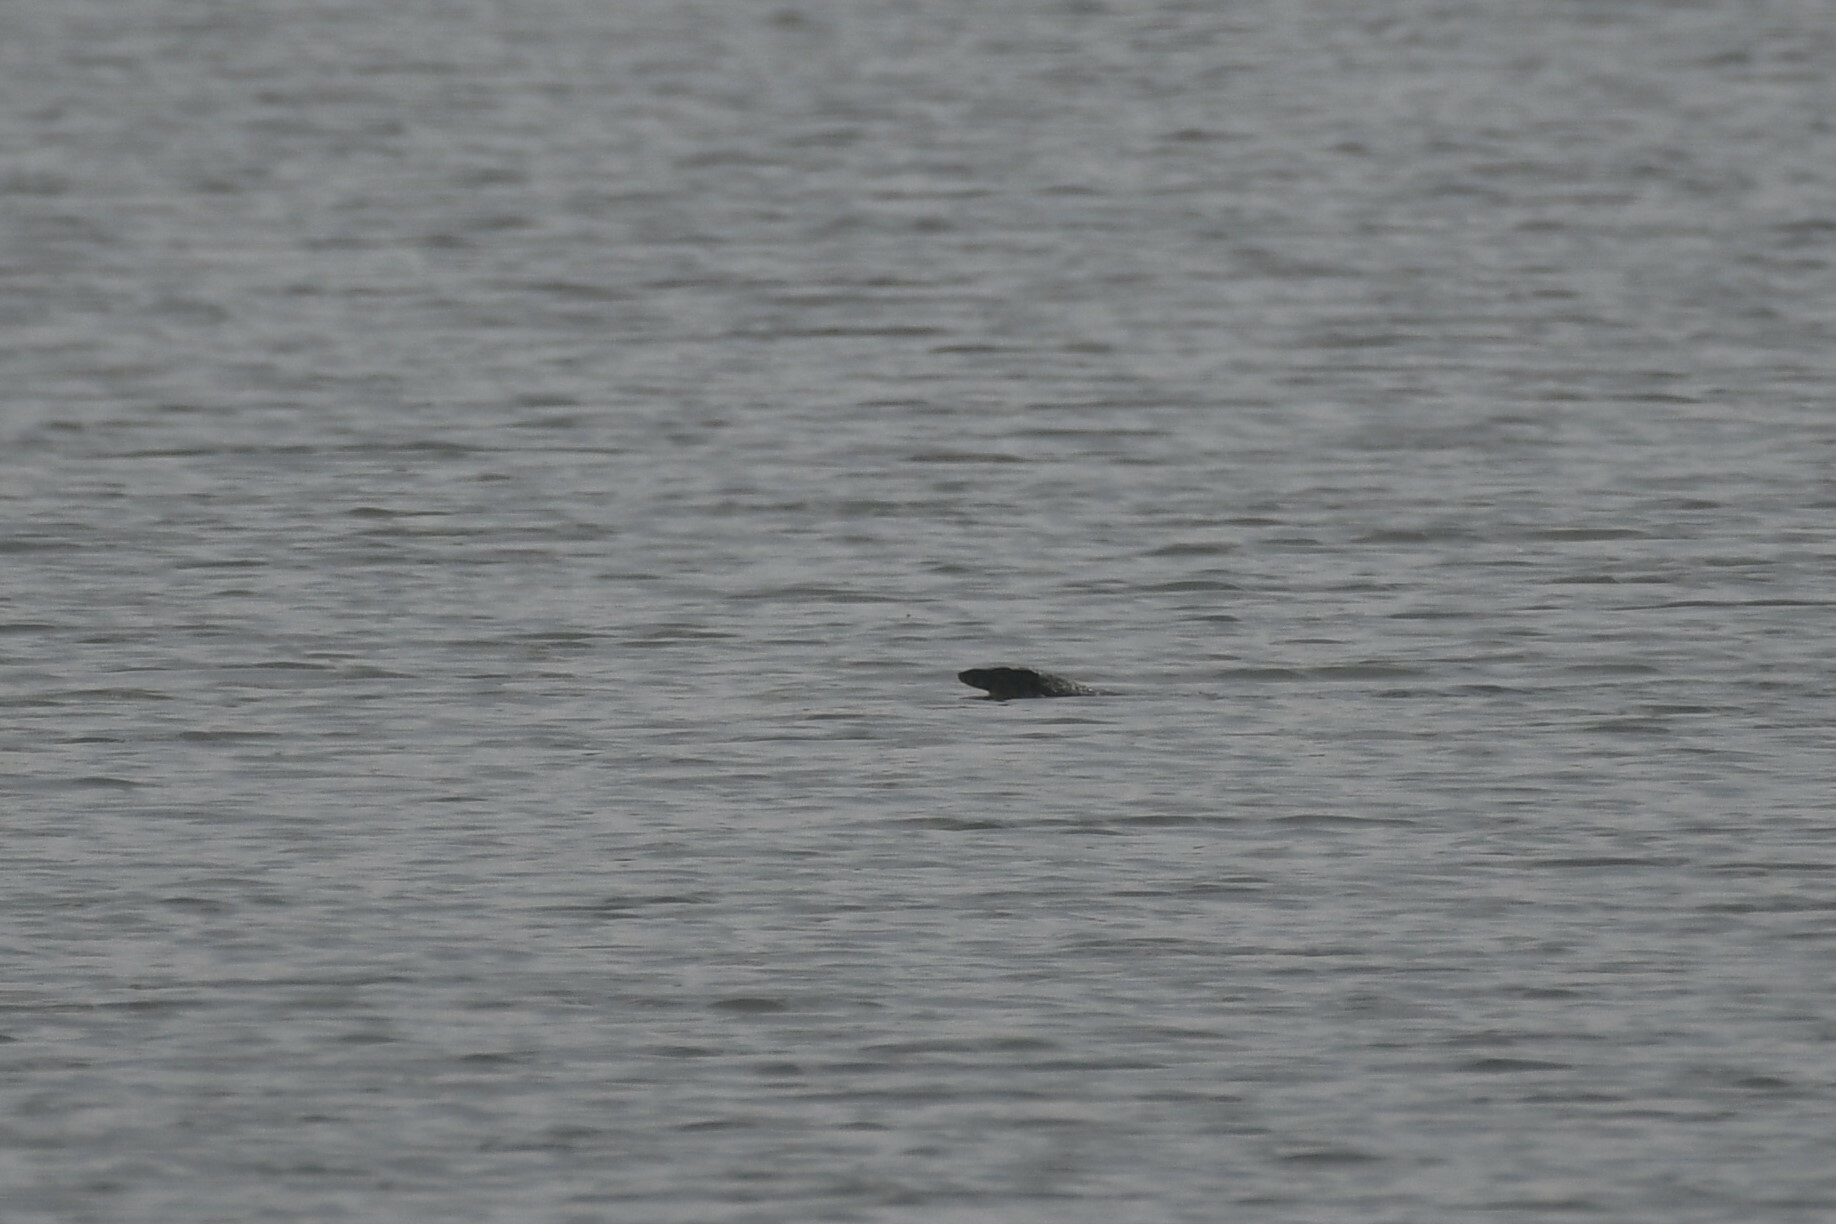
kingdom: Animalia
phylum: Chordata
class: Squamata
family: Varanidae
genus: Varanus
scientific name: Varanus salvator
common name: Common water monitor
